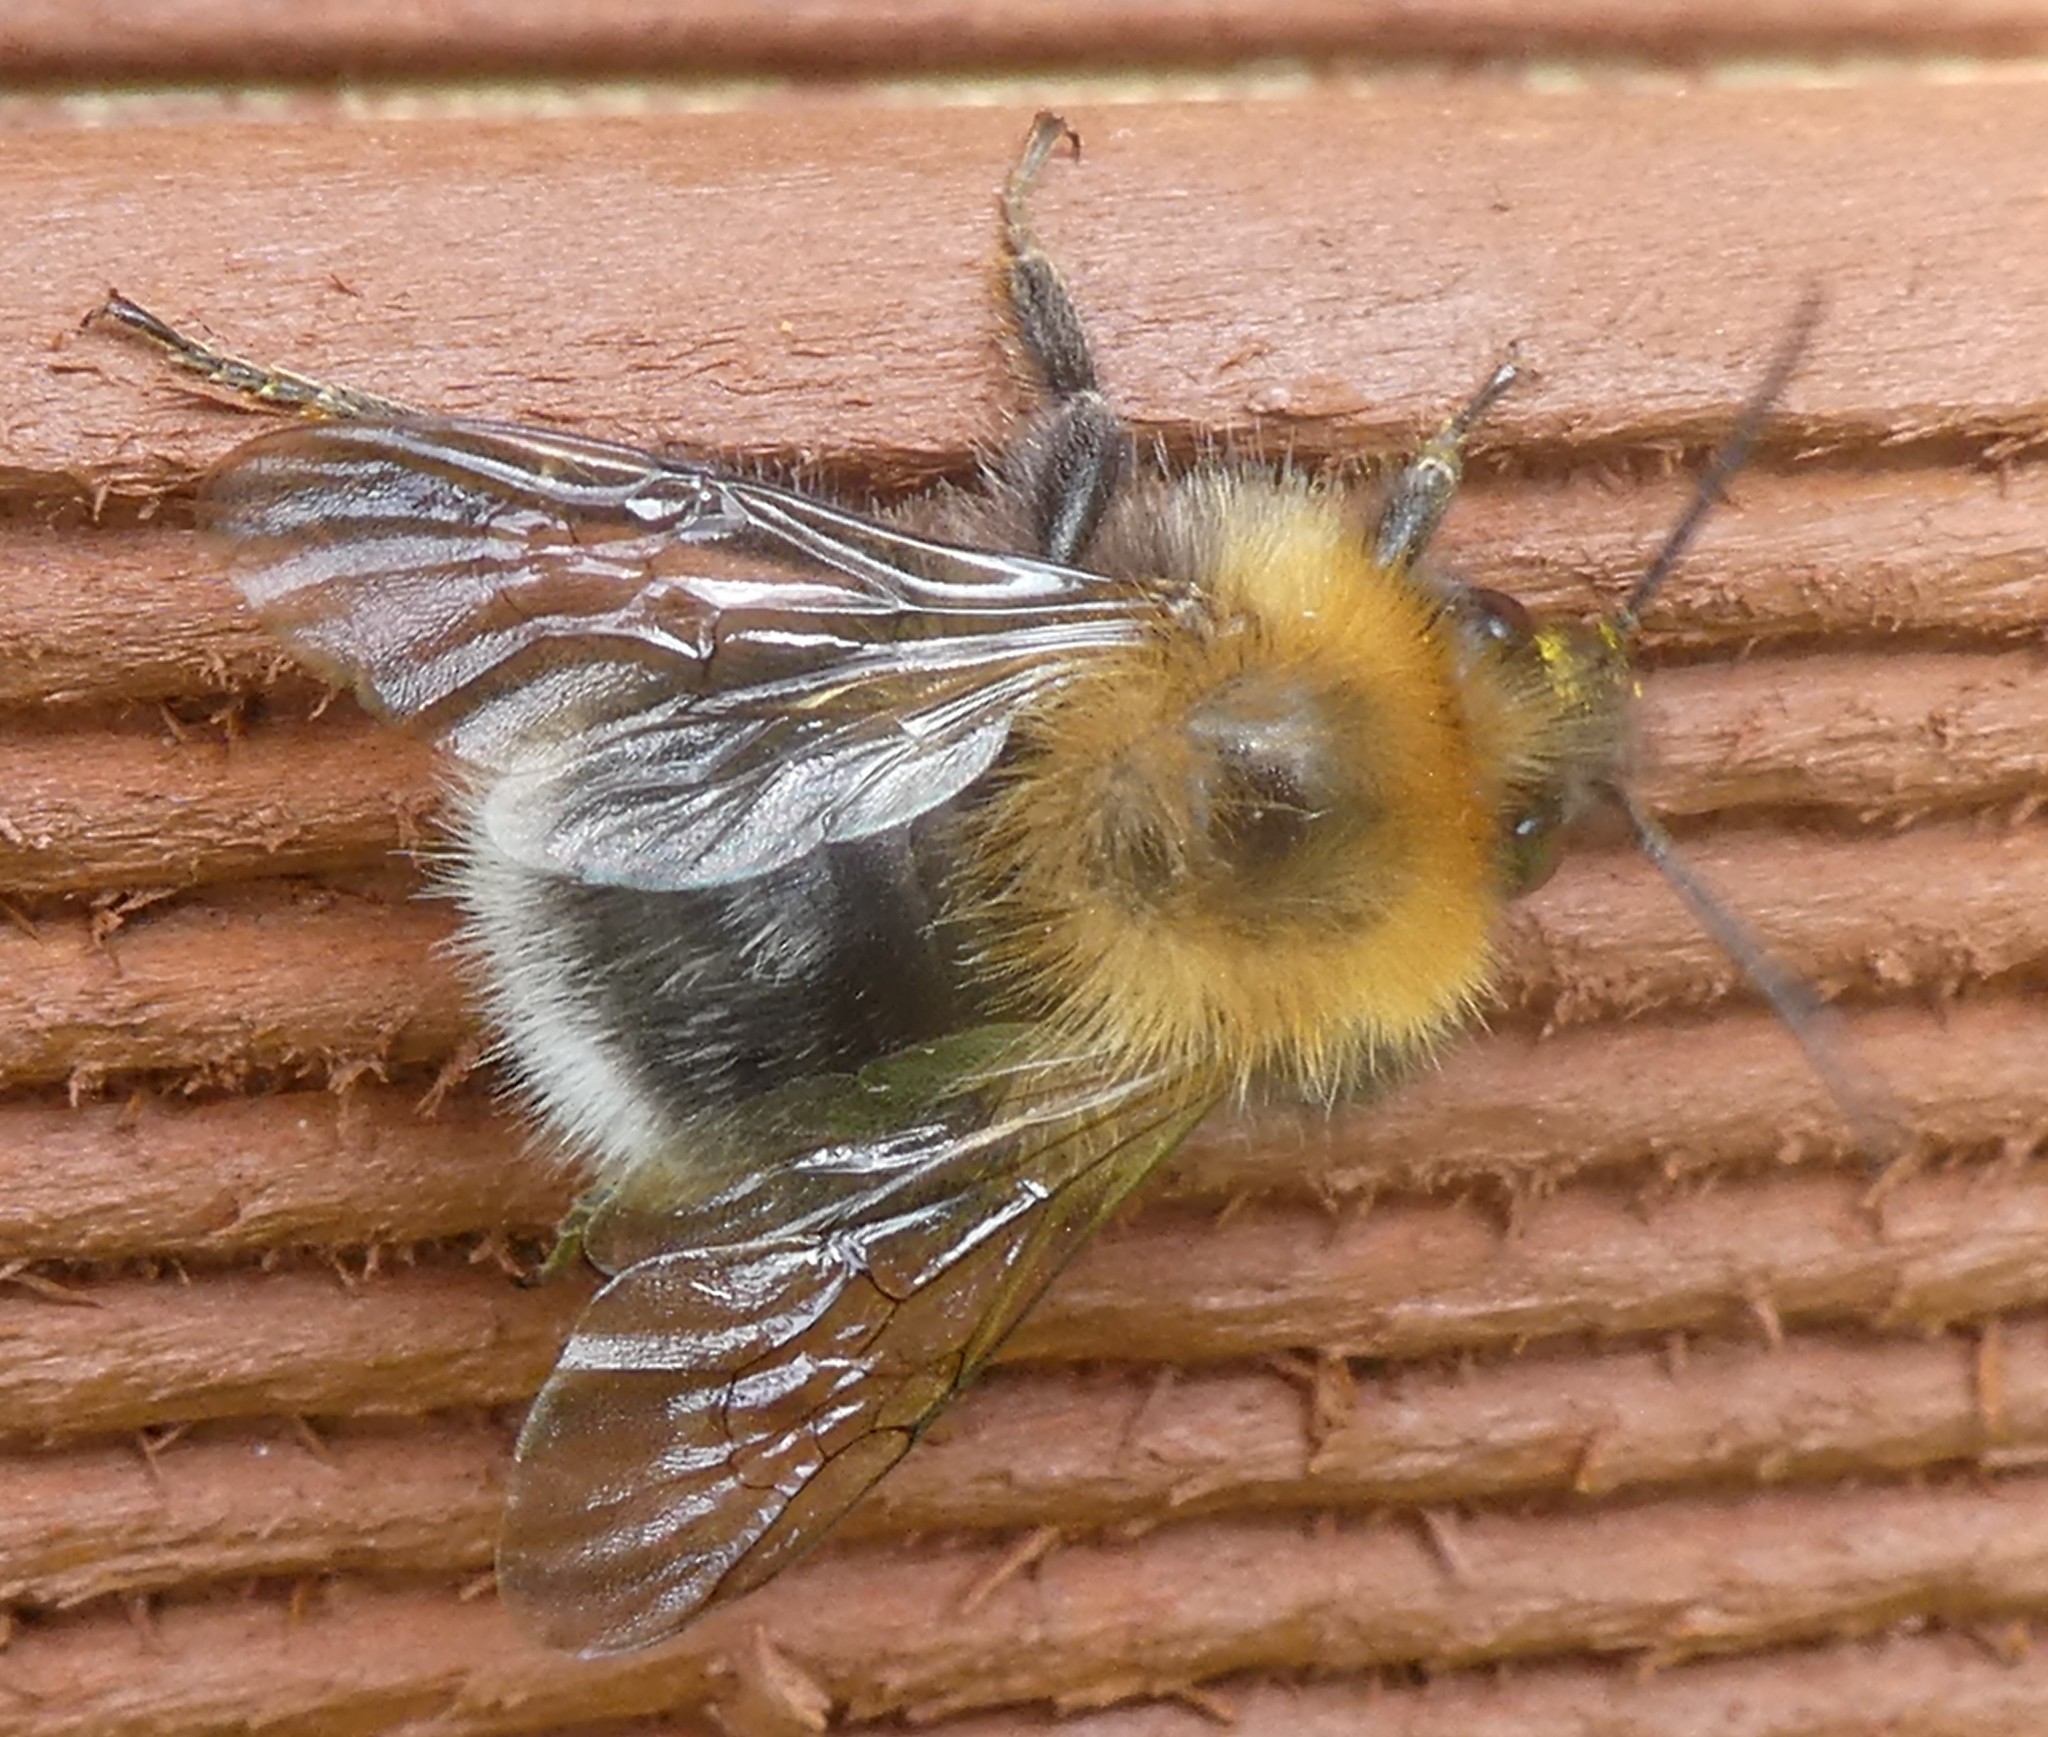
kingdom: Animalia
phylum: Arthropoda
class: Insecta
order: Hymenoptera
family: Apidae
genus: Bombus
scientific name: Bombus hypnorum
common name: New garden bumblebee
